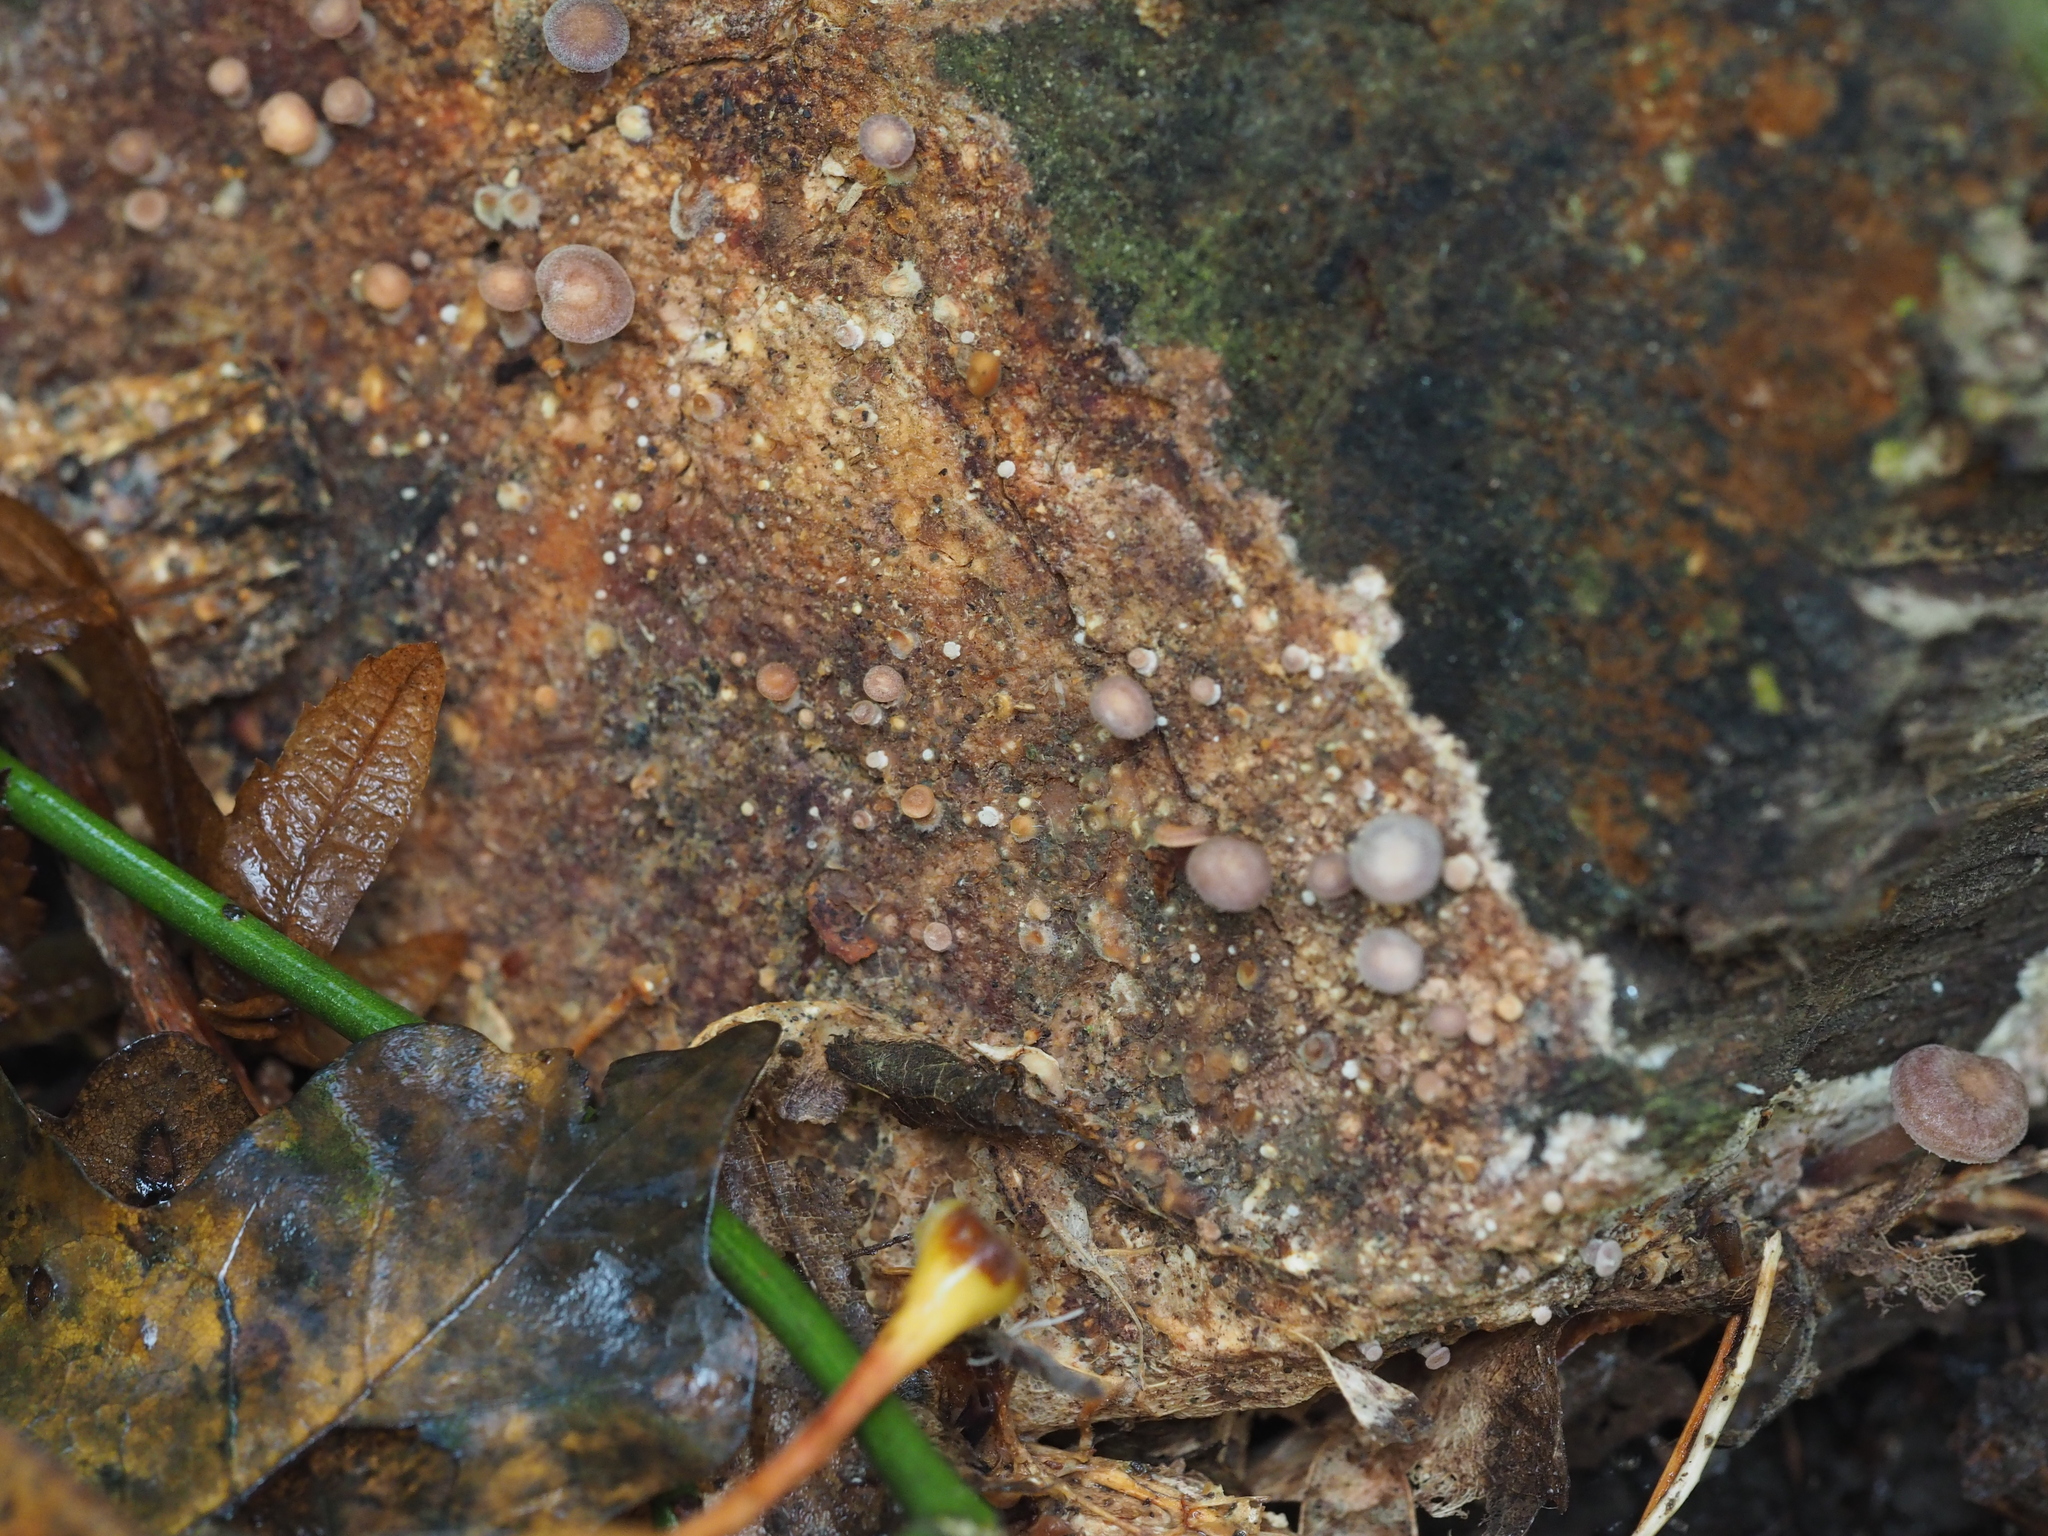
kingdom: Fungi
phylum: Basidiomycota
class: Agaricomycetes
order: Agaricales
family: Omphalotaceae
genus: Gymnopus
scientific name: Gymnopus impudicus
